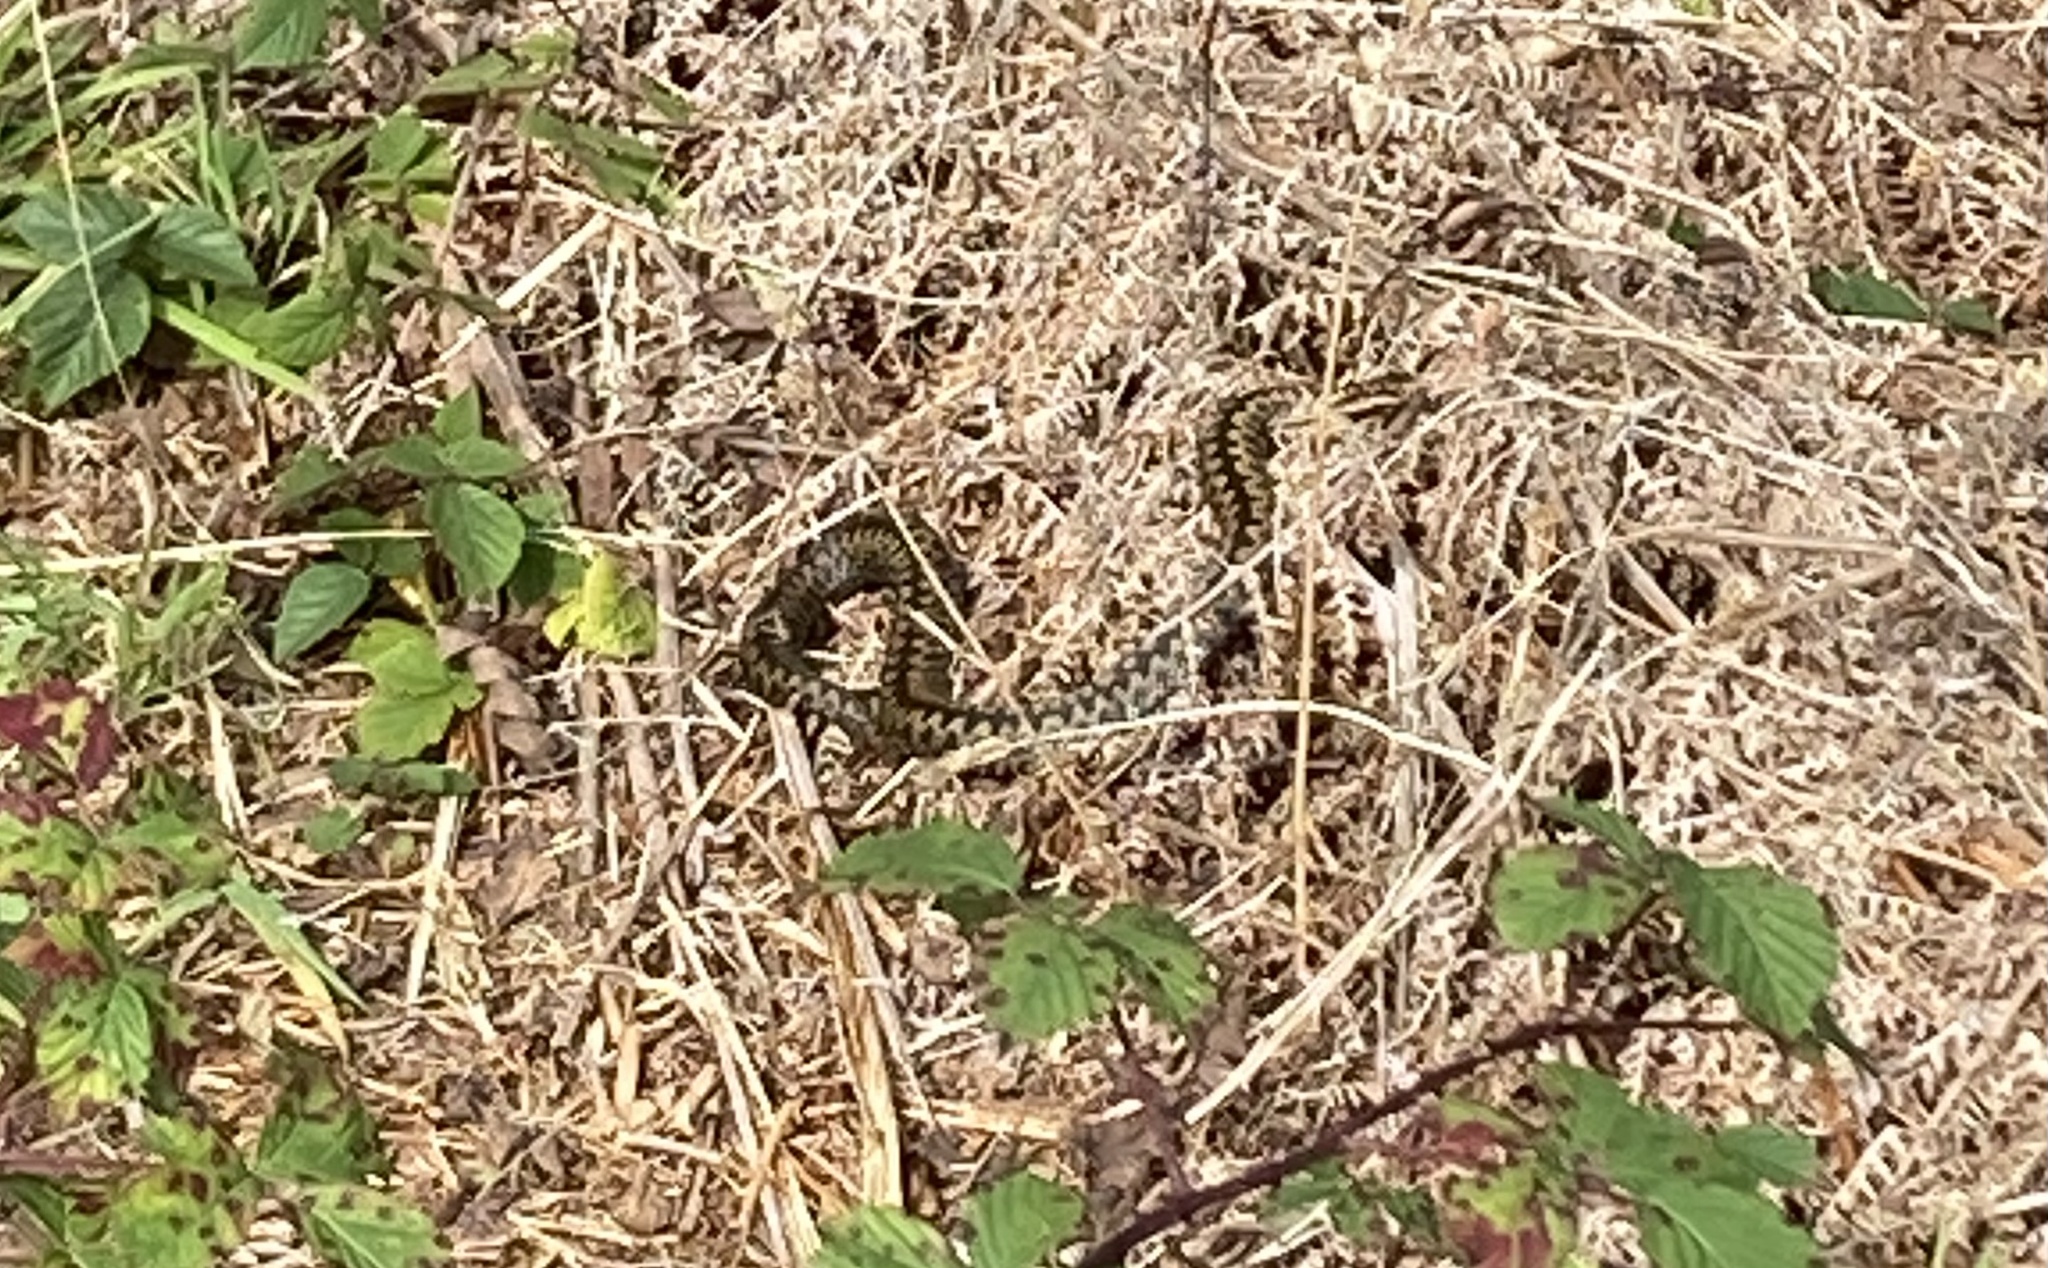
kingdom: Animalia
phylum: Chordata
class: Squamata
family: Viperidae
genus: Vipera
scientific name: Vipera berus
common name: Adder
